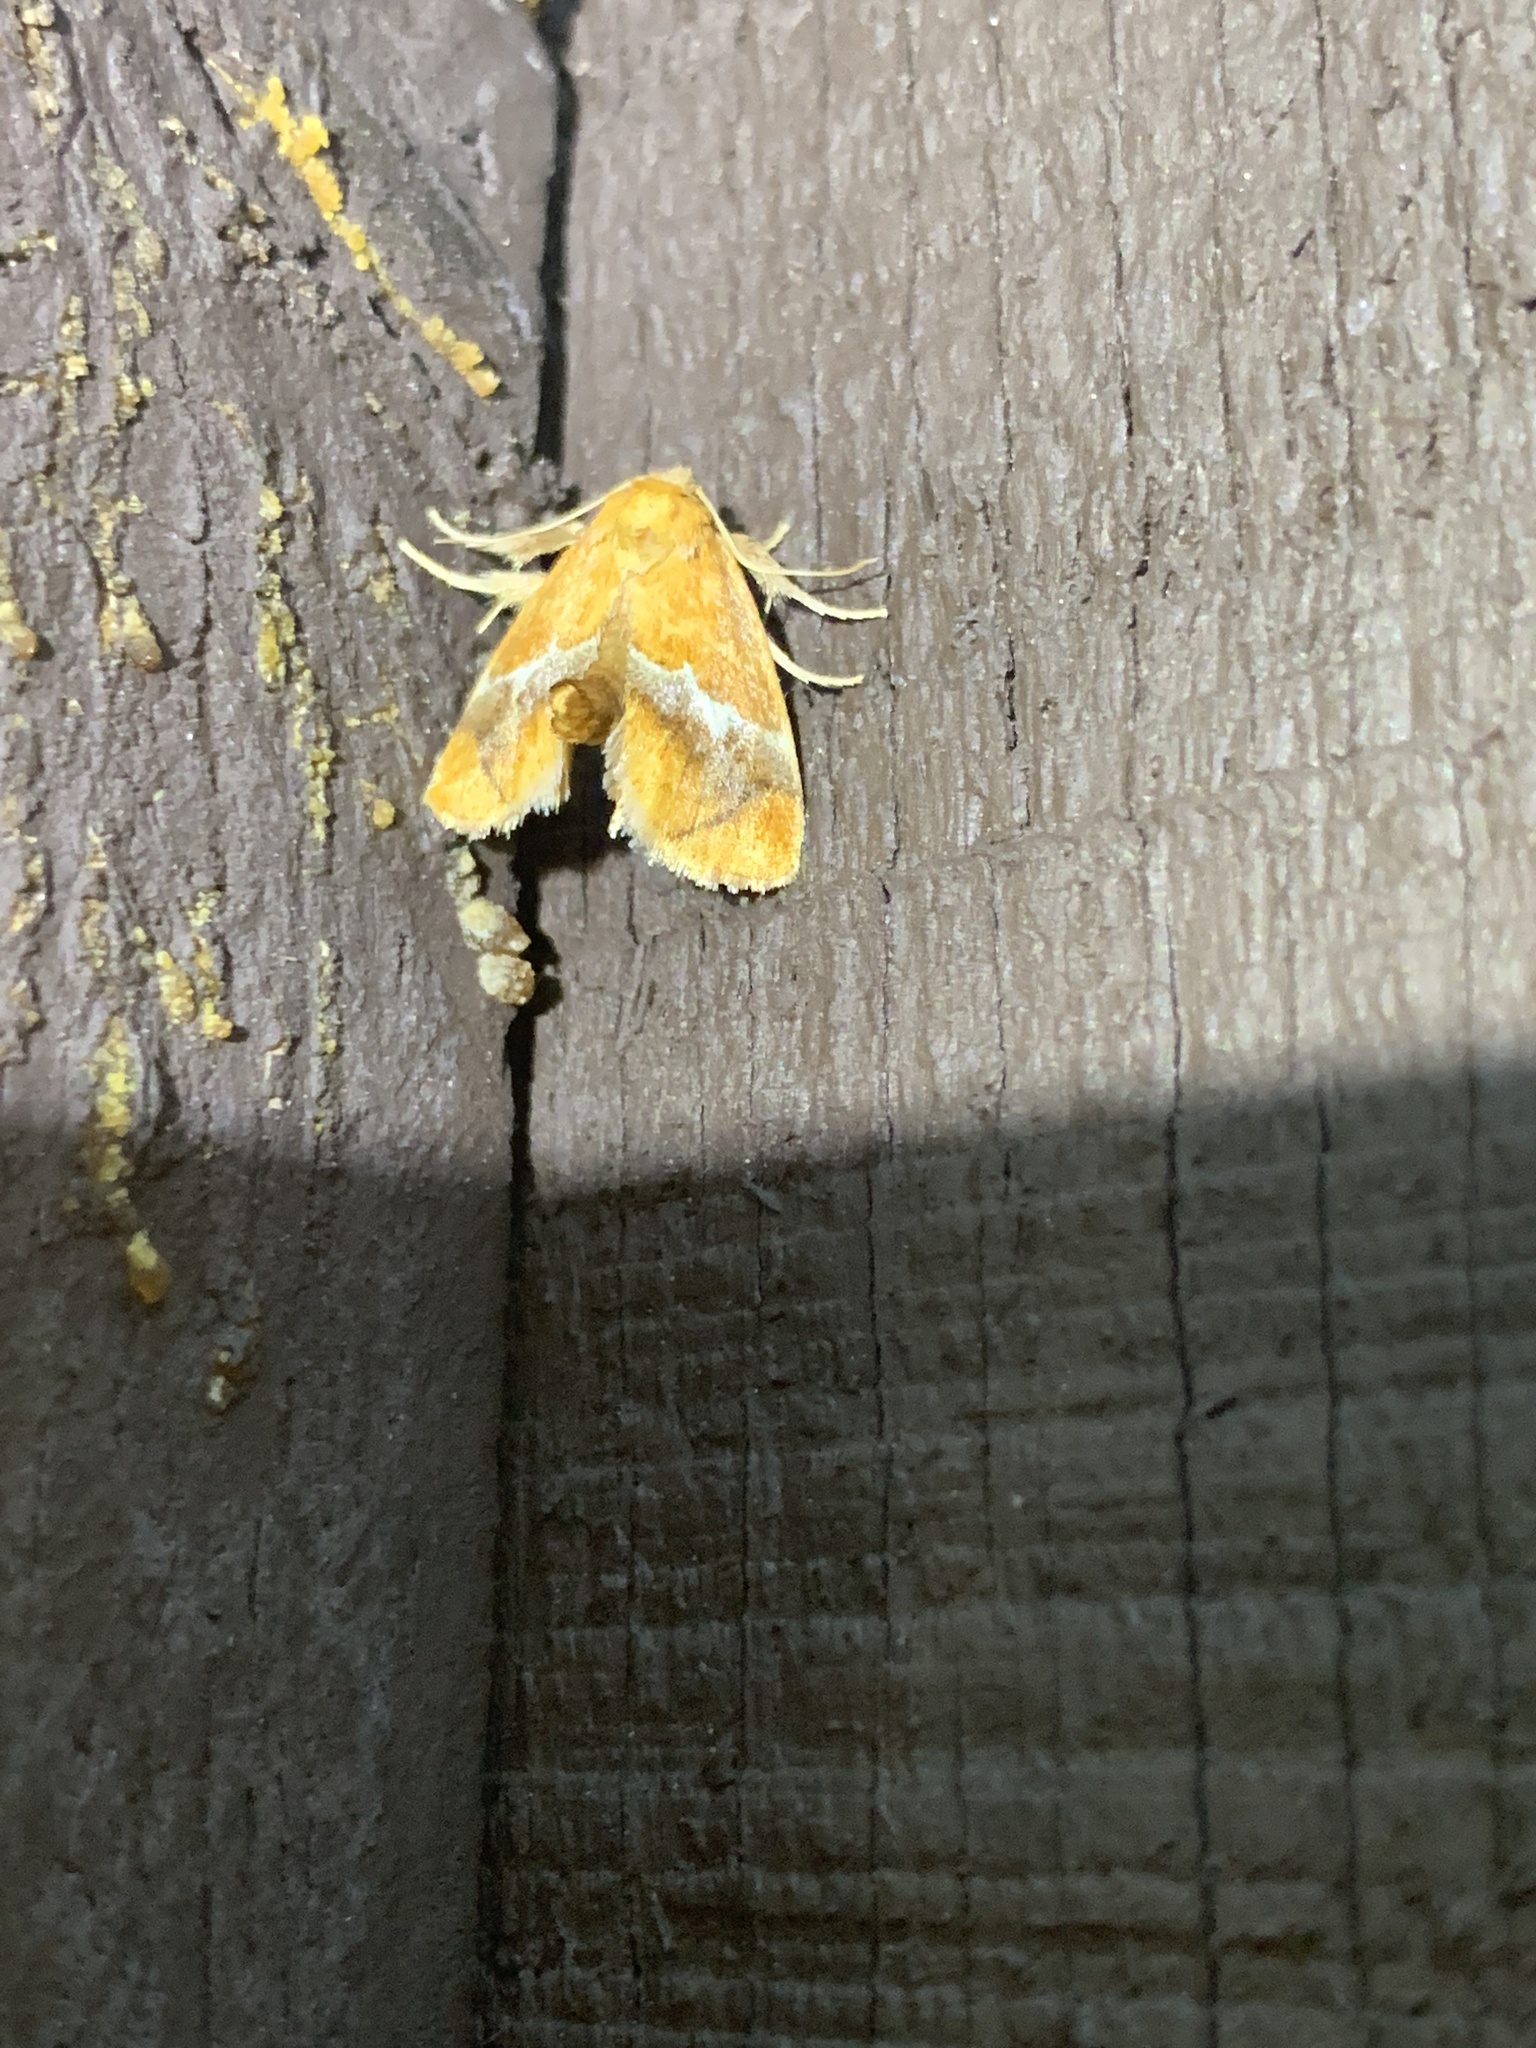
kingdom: Animalia
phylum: Arthropoda
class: Insecta
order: Lepidoptera
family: Limacodidae
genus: Lithacodes
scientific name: Lithacodes fasciola
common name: Yellow-shouldered slug moth
